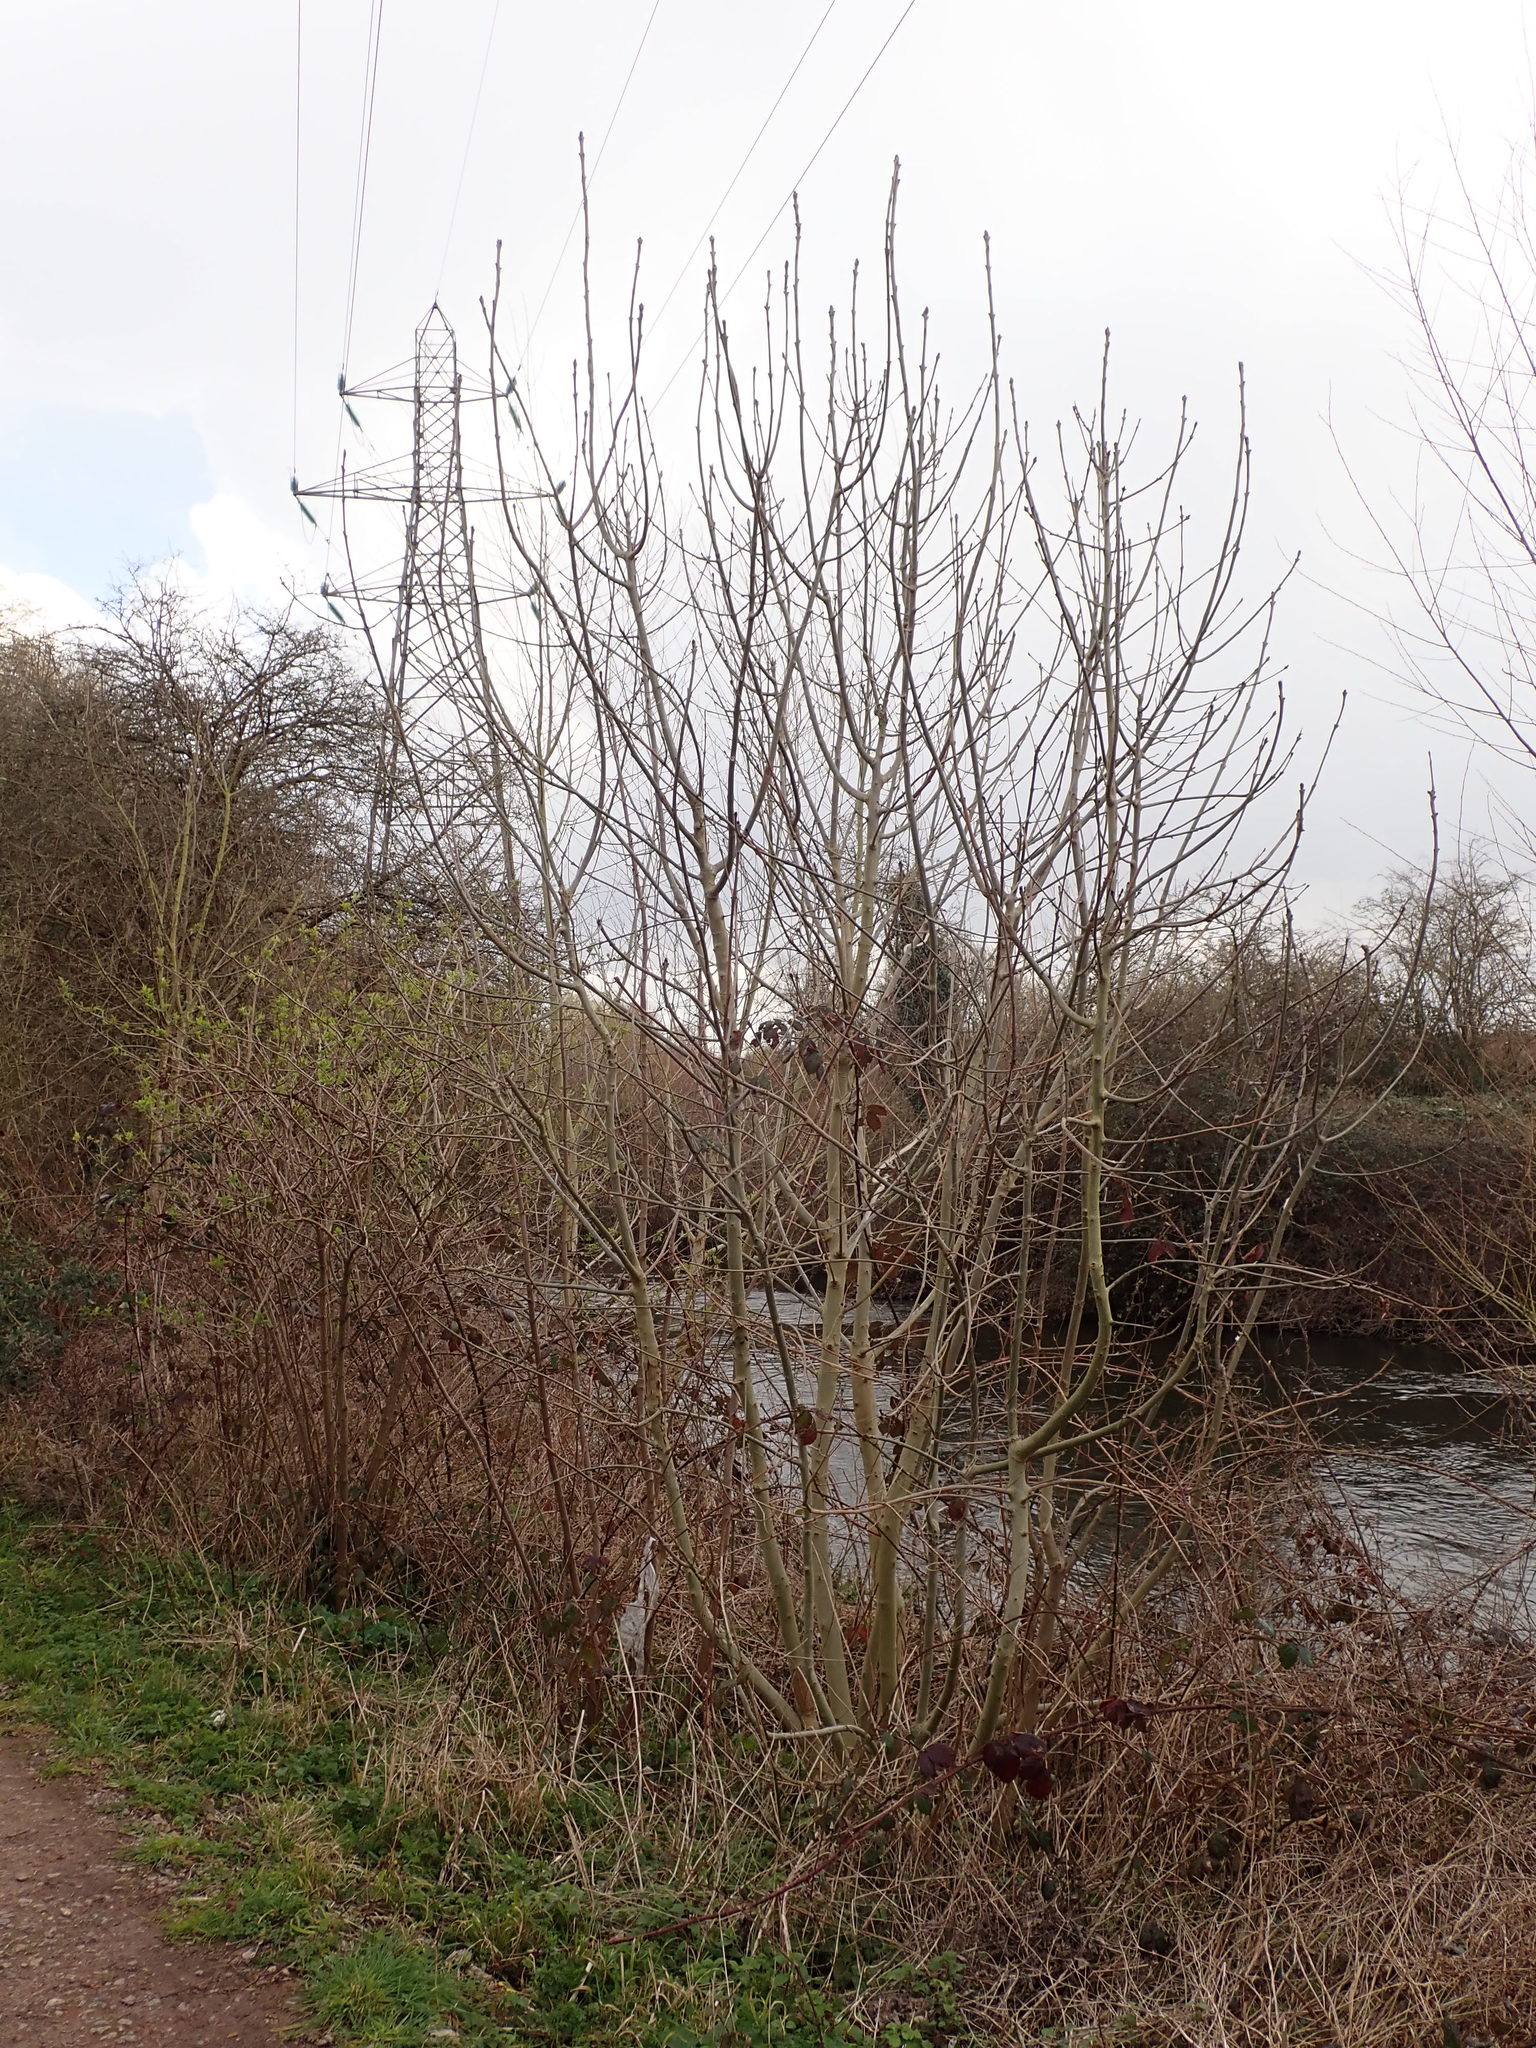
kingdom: Plantae
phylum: Tracheophyta
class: Magnoliopsida
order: Lamiales
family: Oleaceae
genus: Fraxinus
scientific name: Fraxinus excelsior
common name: European ash
